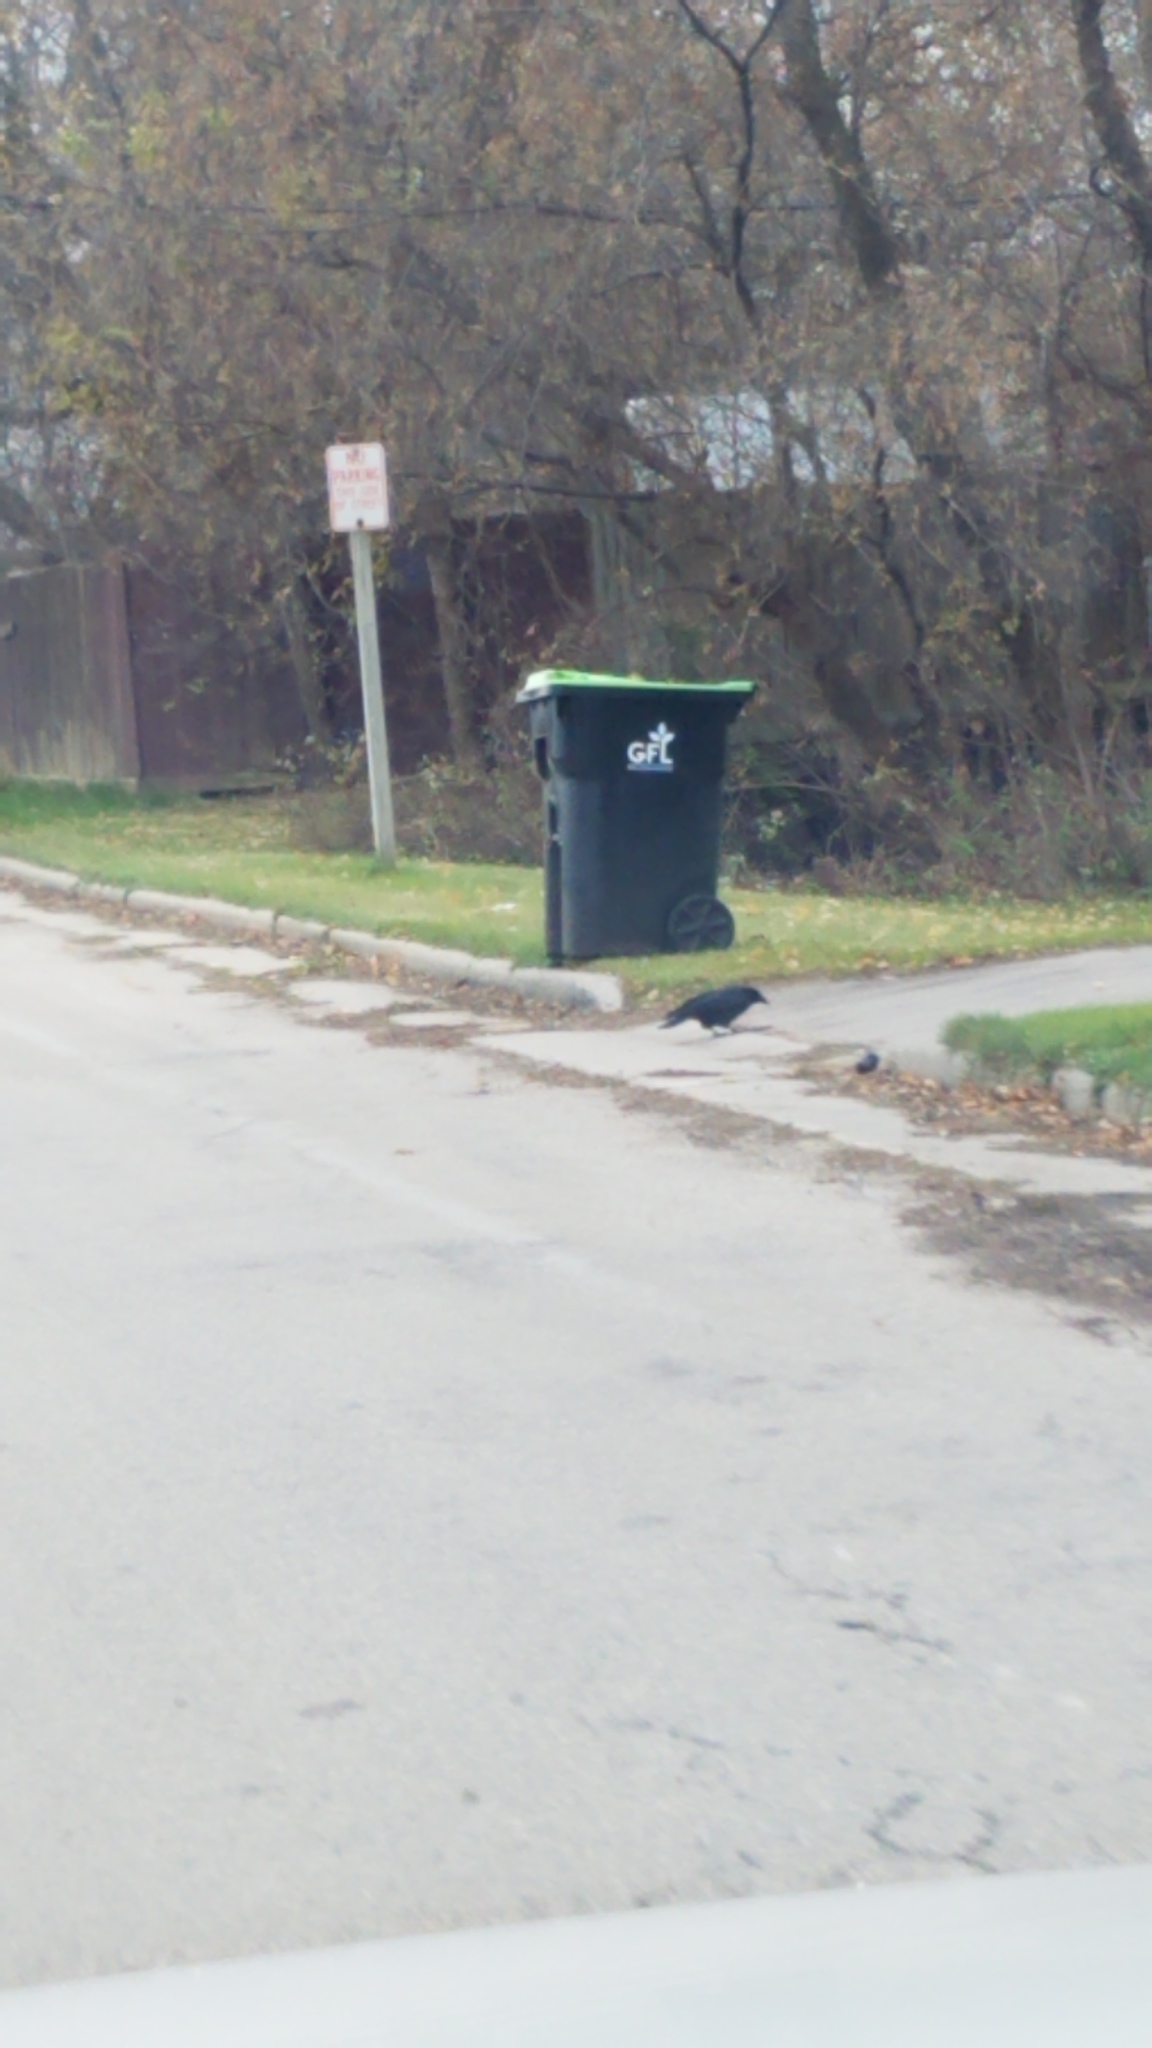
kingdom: Animalia
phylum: Chordata
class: Aves
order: Passeriformes
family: Corvidae
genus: Corvus
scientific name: Corvus brachyrhynchos
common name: American crow
